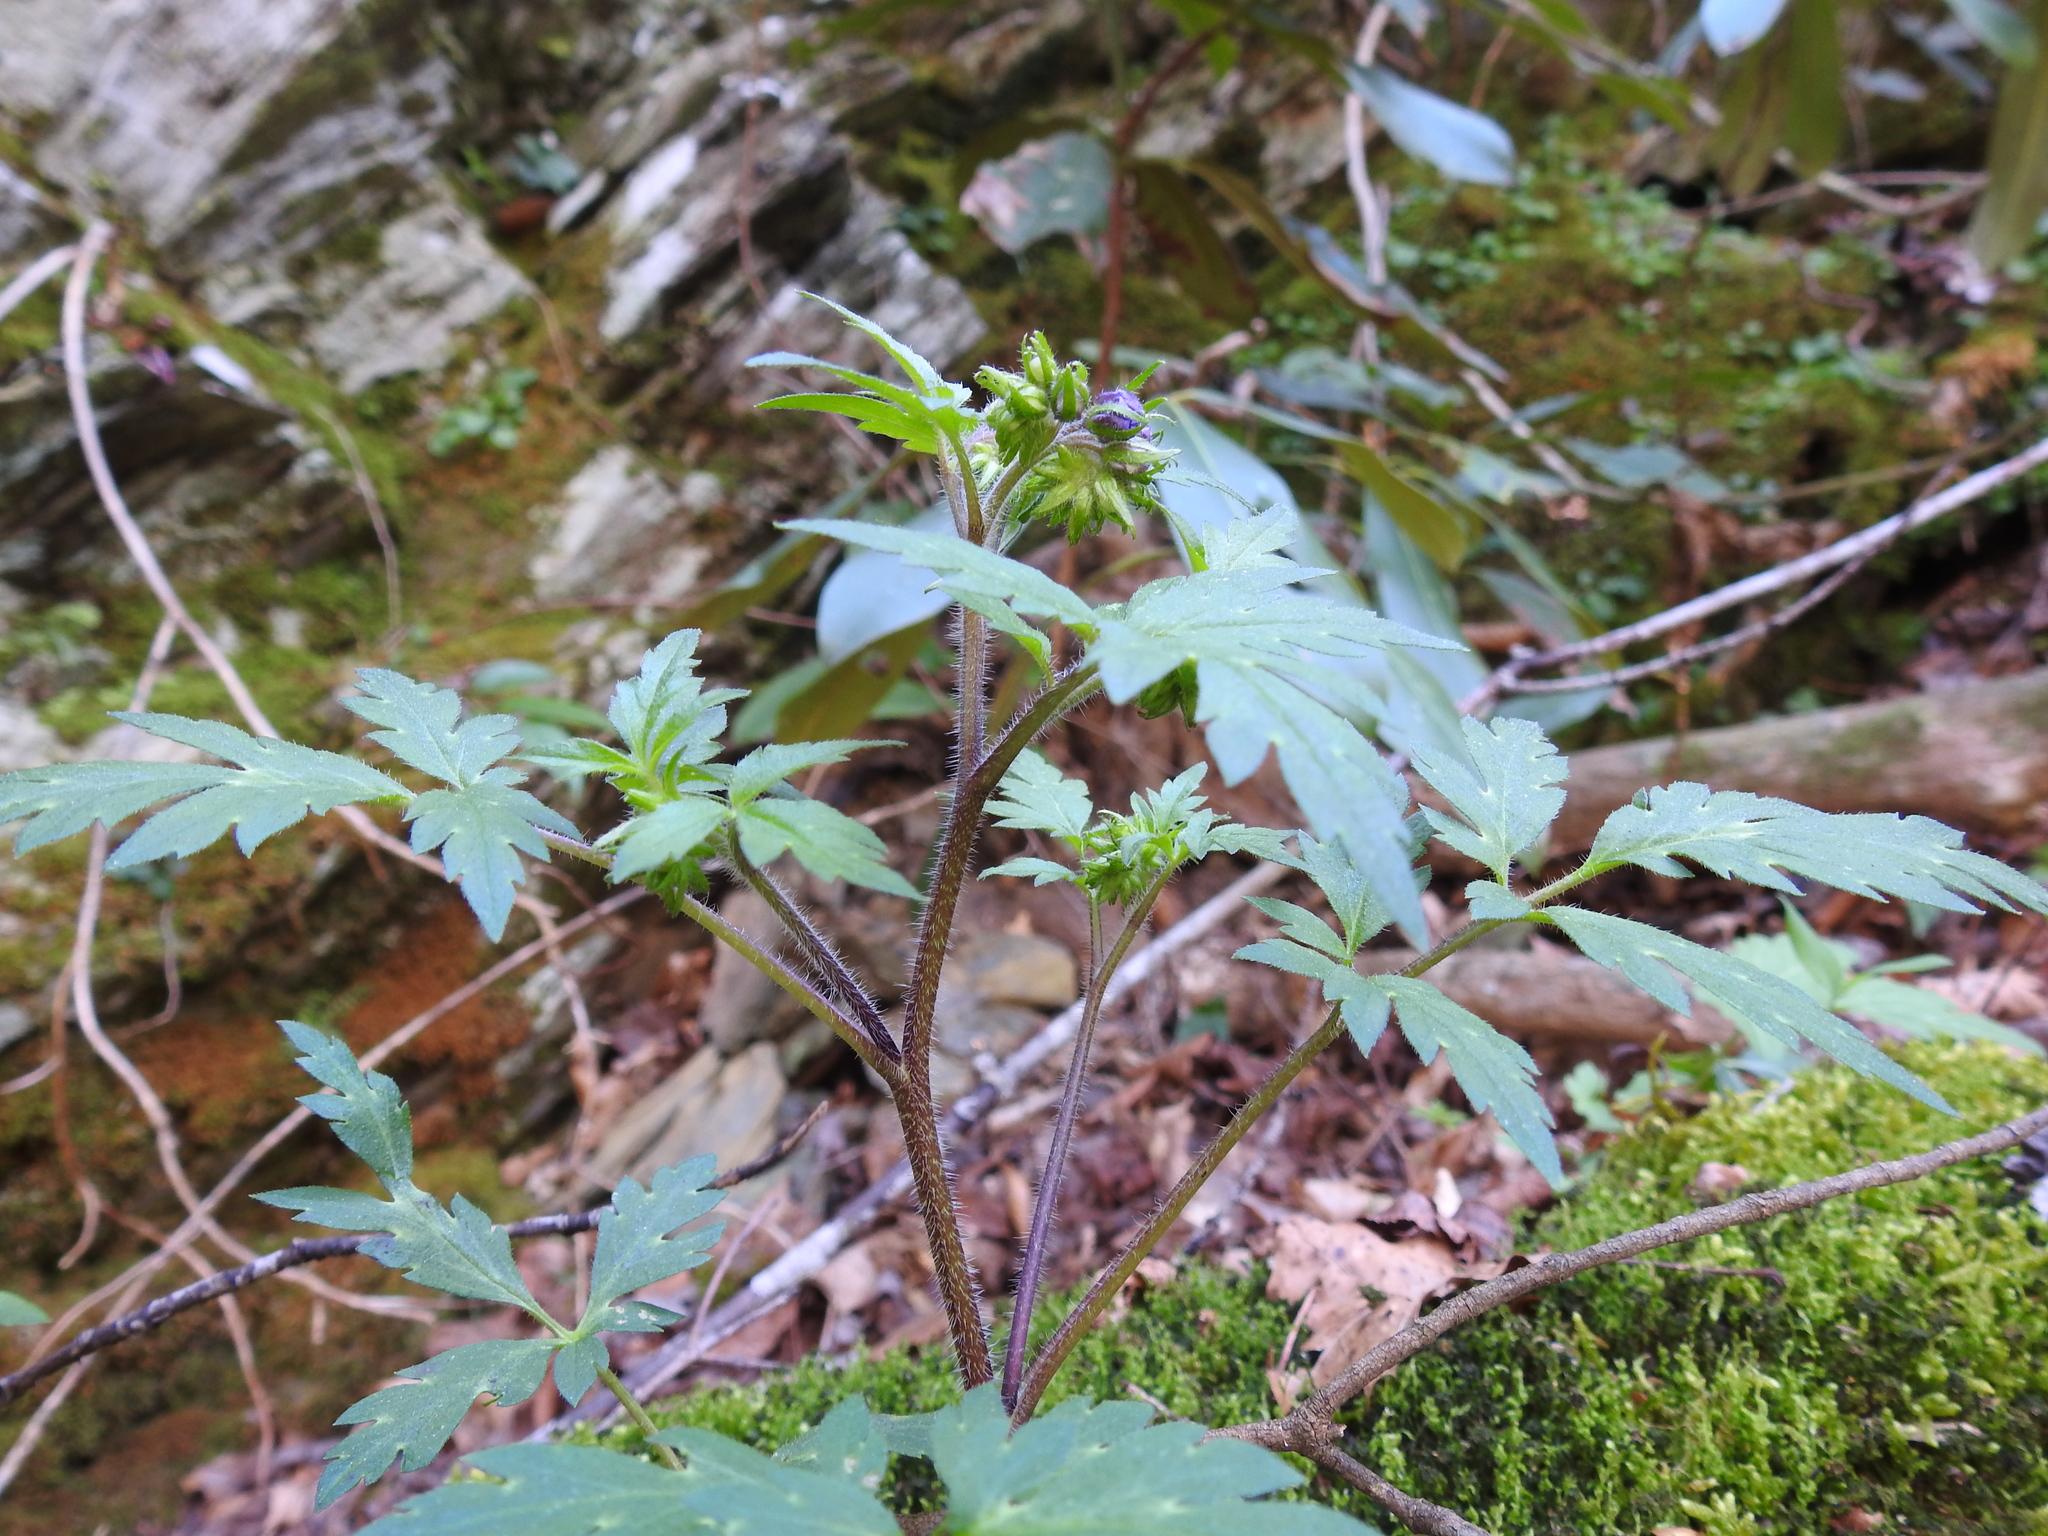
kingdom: Plantae
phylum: Tracheophyta
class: Magnoliopsida
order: Boraginales
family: Hydrophyllaceae
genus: Phacelia
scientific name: Phacelia bipinnatifida
